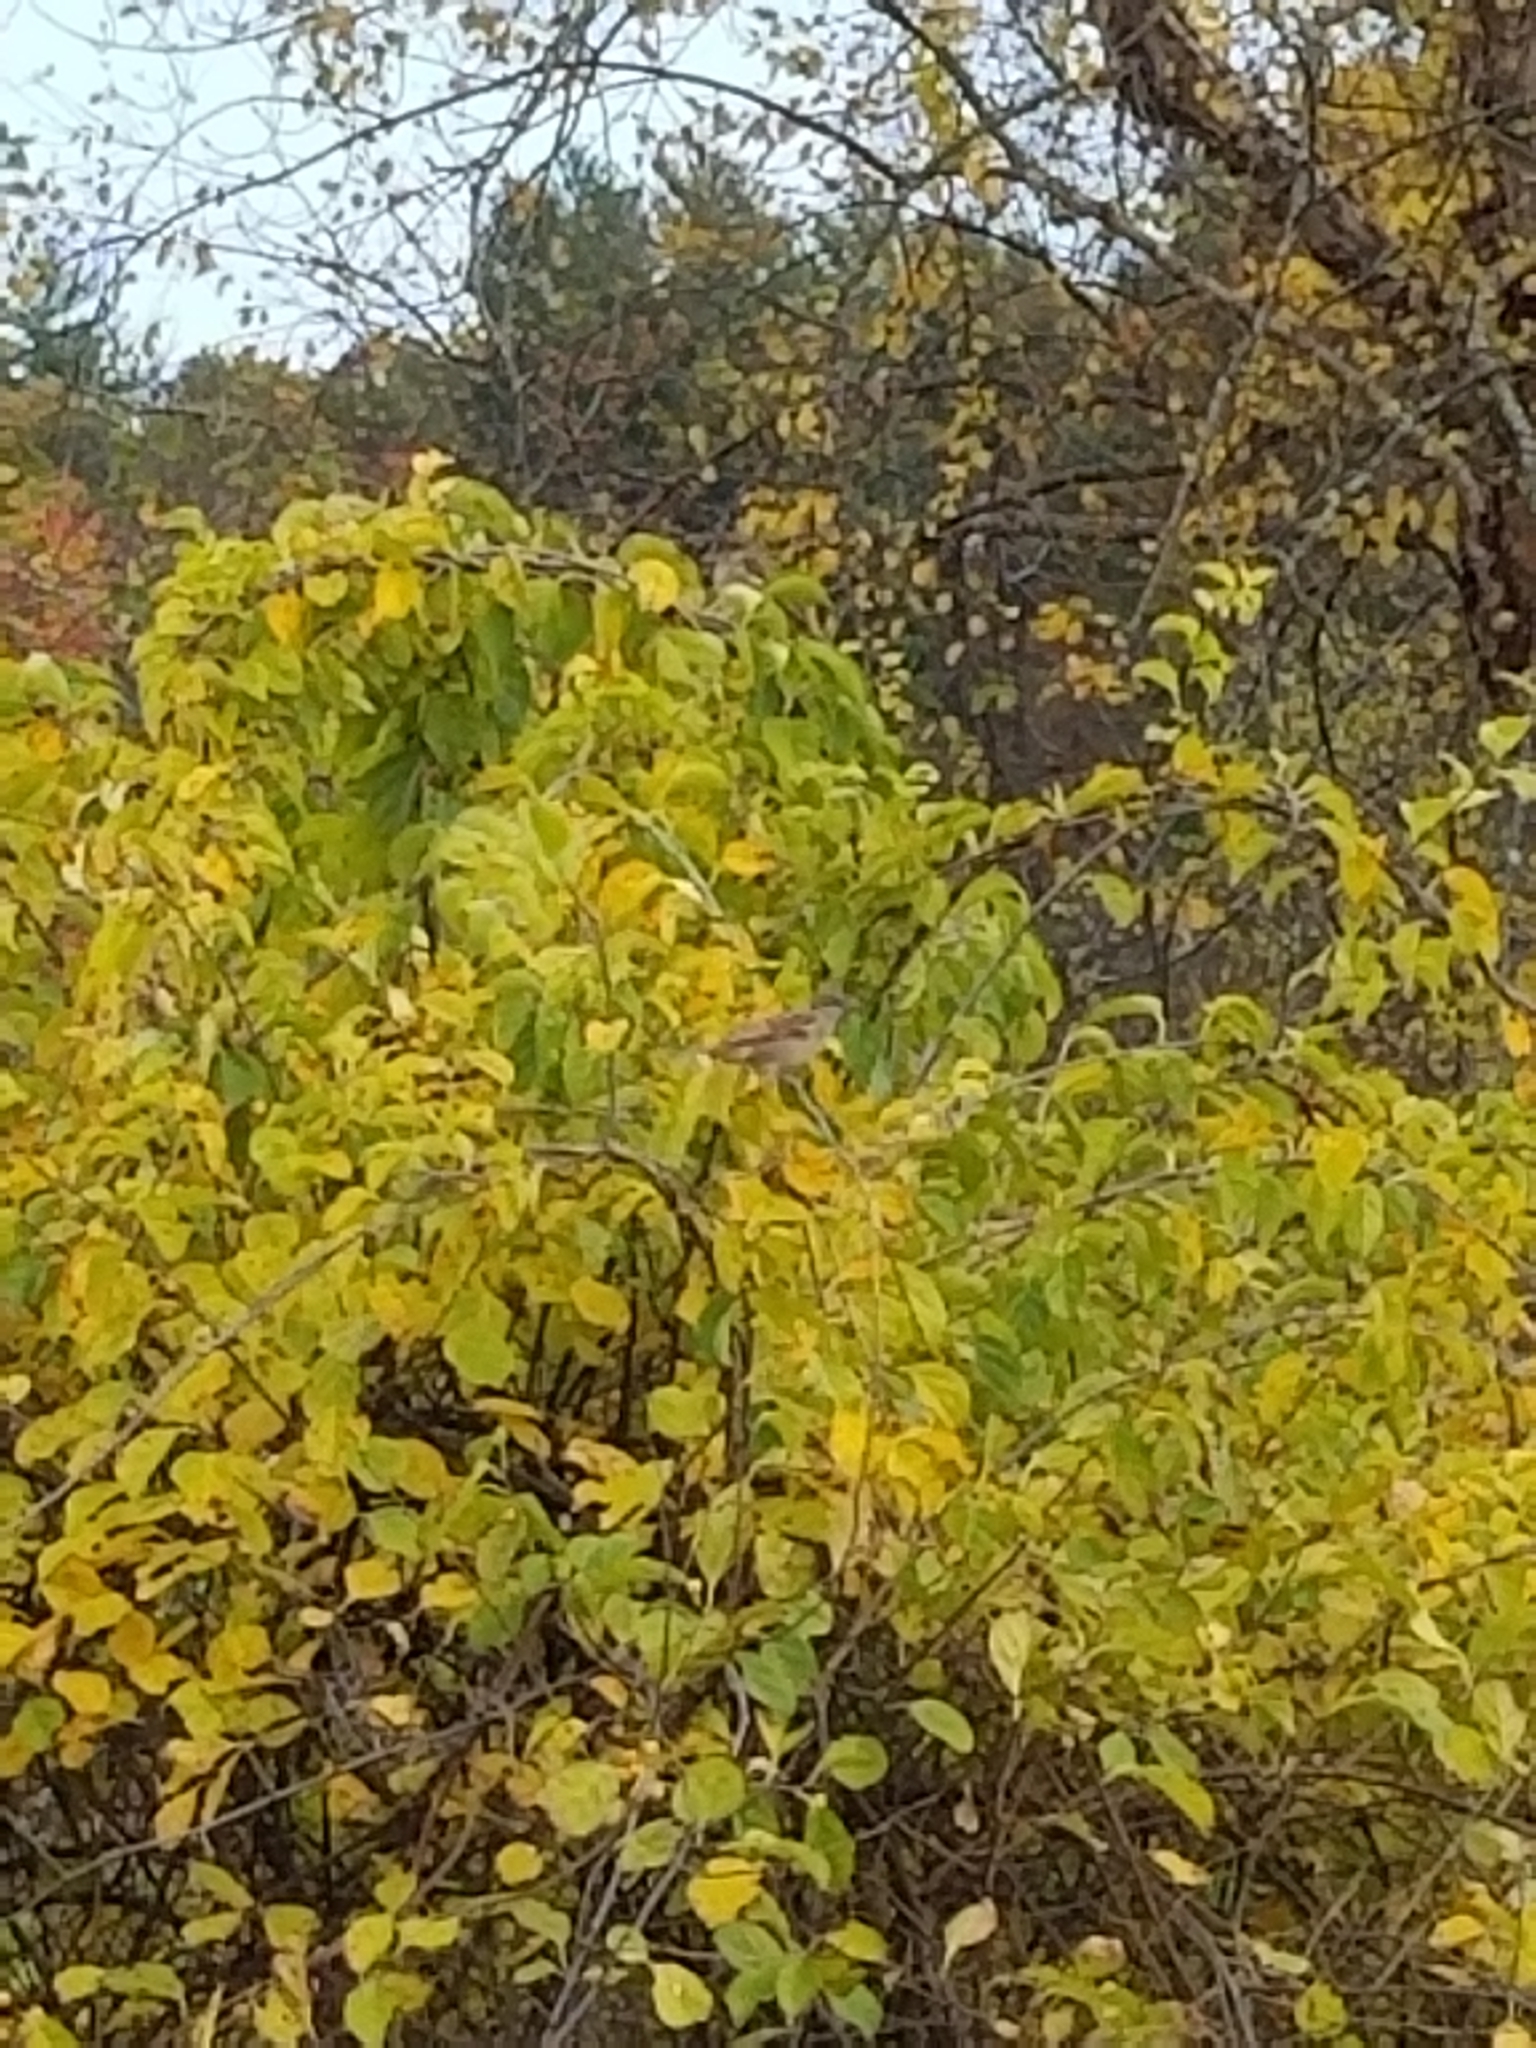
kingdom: Animalia
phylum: Chordata
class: Aves
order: Passeriformes
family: Passeridae
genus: Passer
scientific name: Passer domesticus
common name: House sparrow
